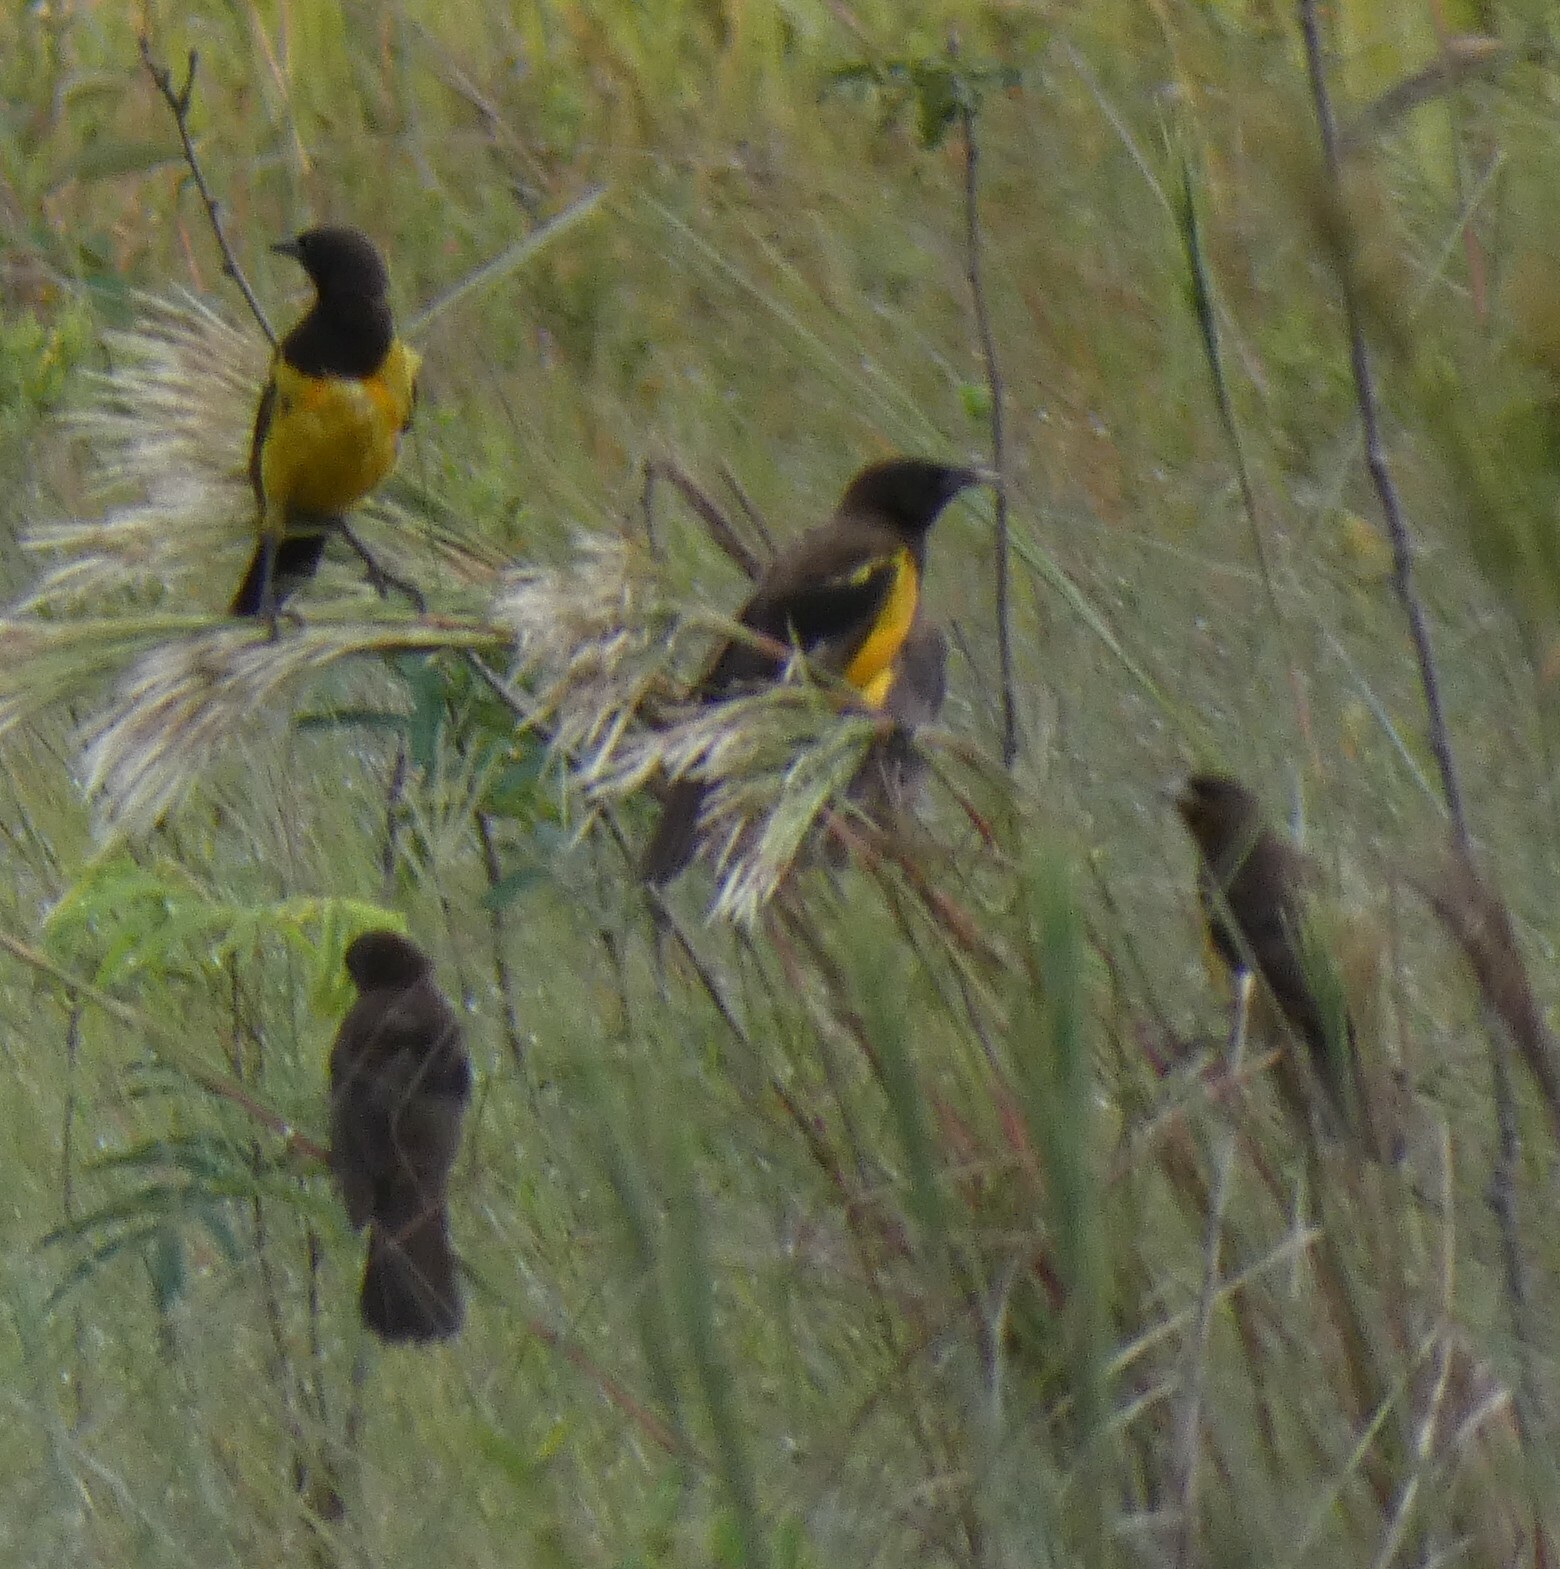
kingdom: Animalia
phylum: Chordata
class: Aves
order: Passeriformes
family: Icteridae
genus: Pseudoleistes
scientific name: Pseudoleistes guirahuro
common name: Yellow-rumped marshbird
